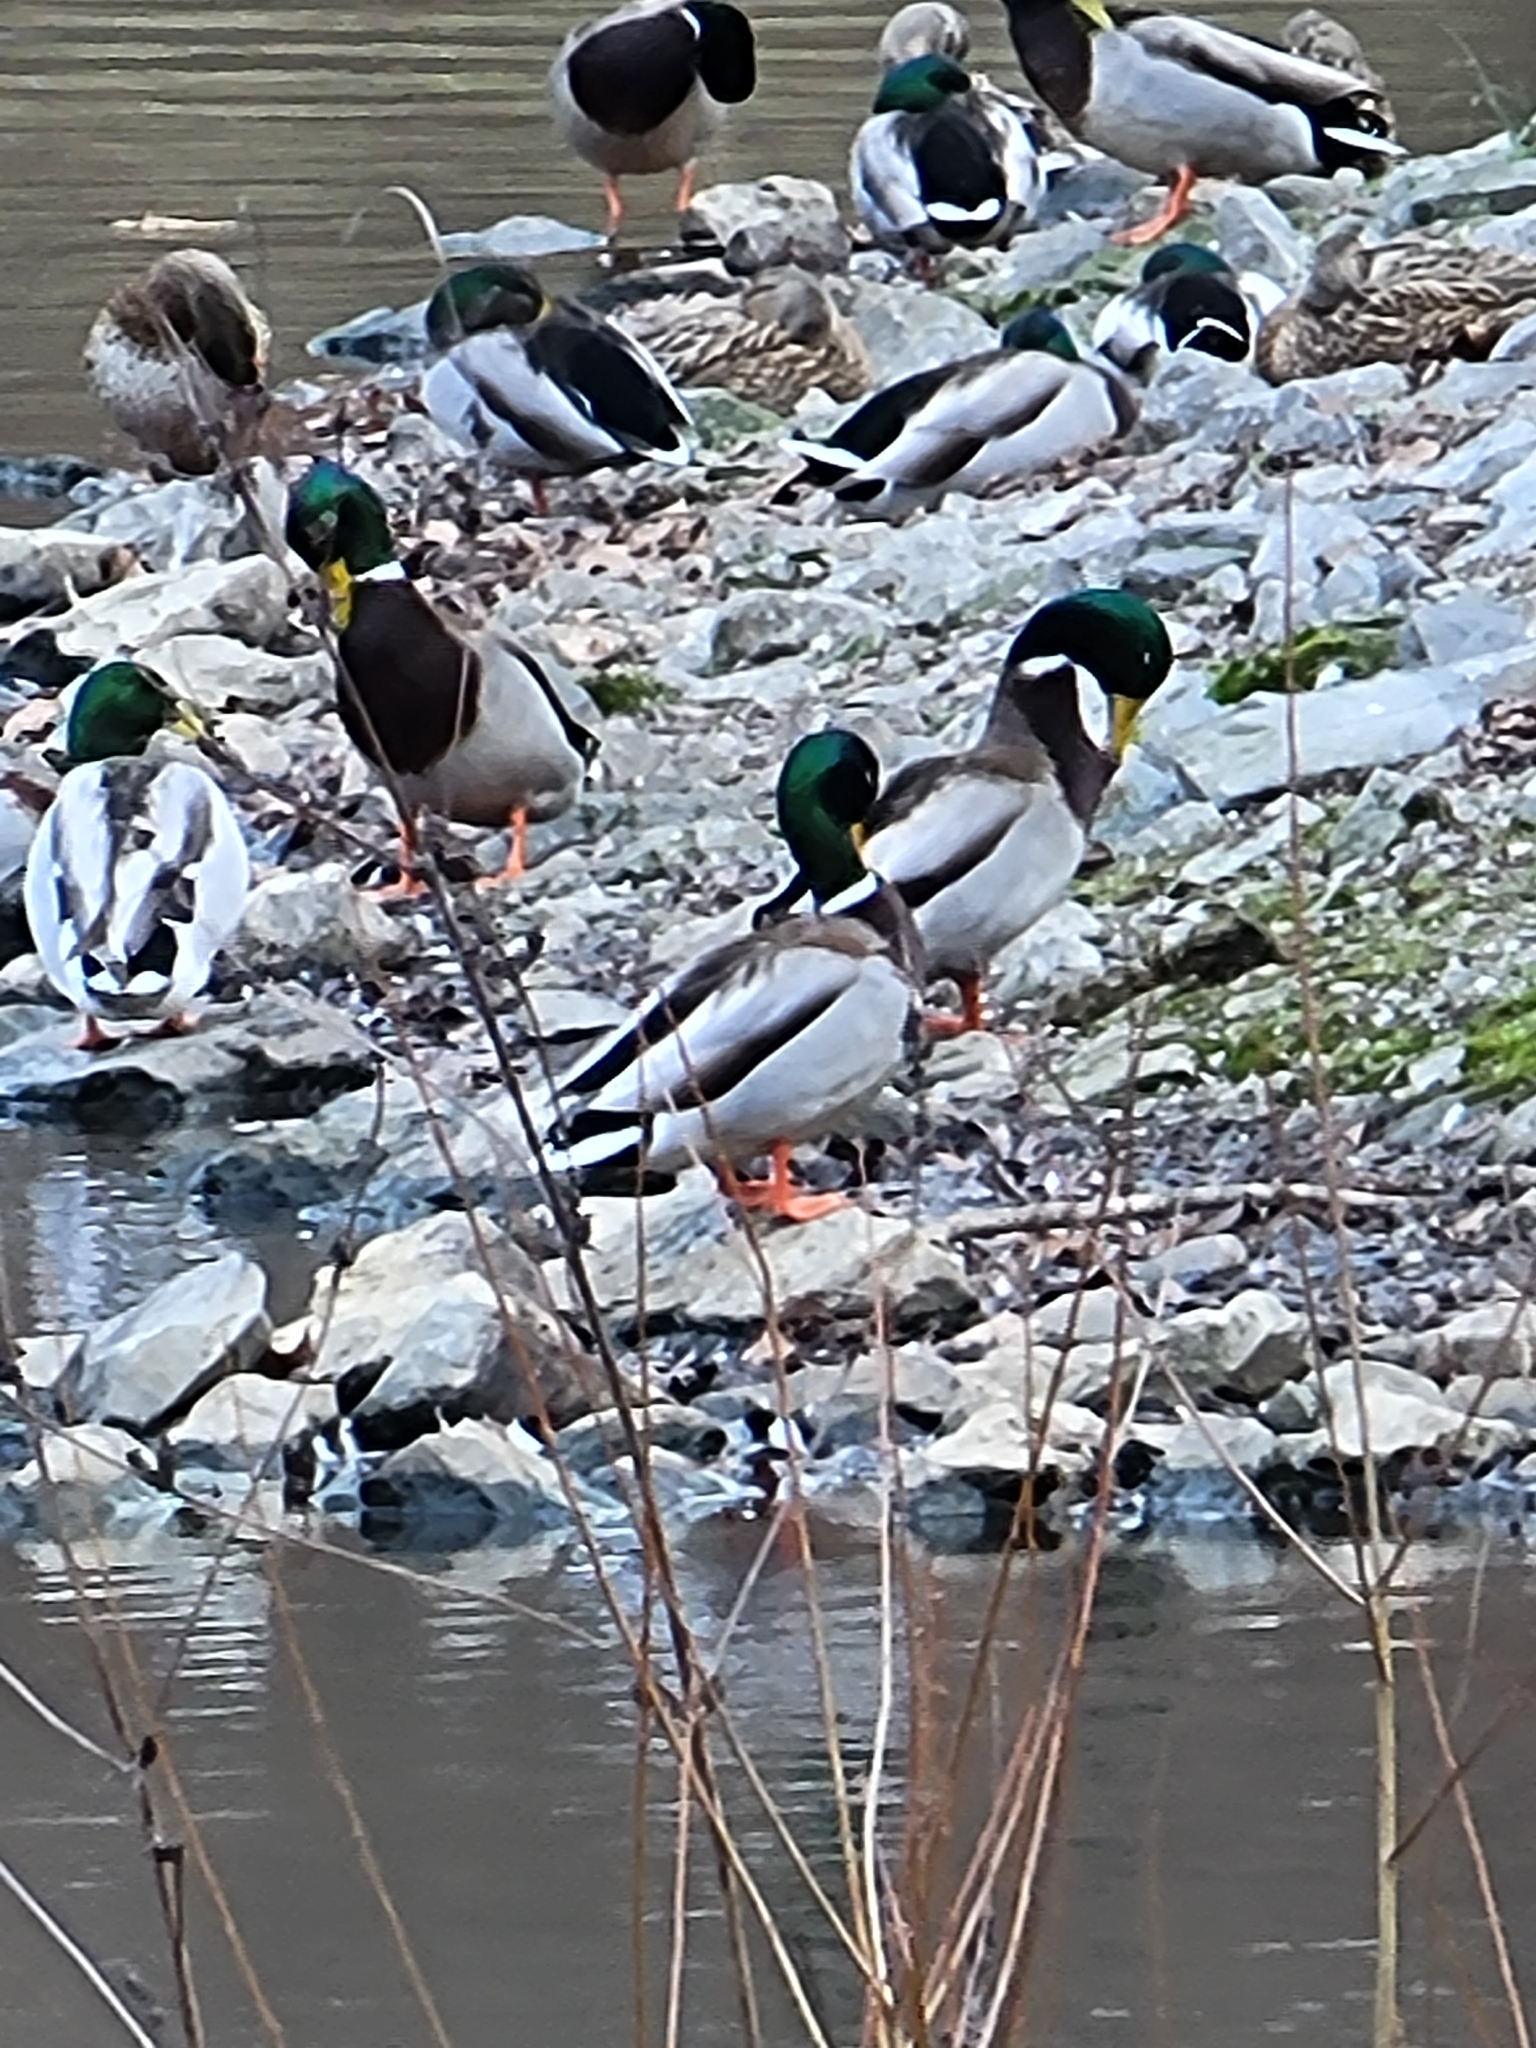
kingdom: Animalia
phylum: Chordata
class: Aves
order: Anseriformes
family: Anatidae
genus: Anas
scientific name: Anas platyrhynchos
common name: Mallard
